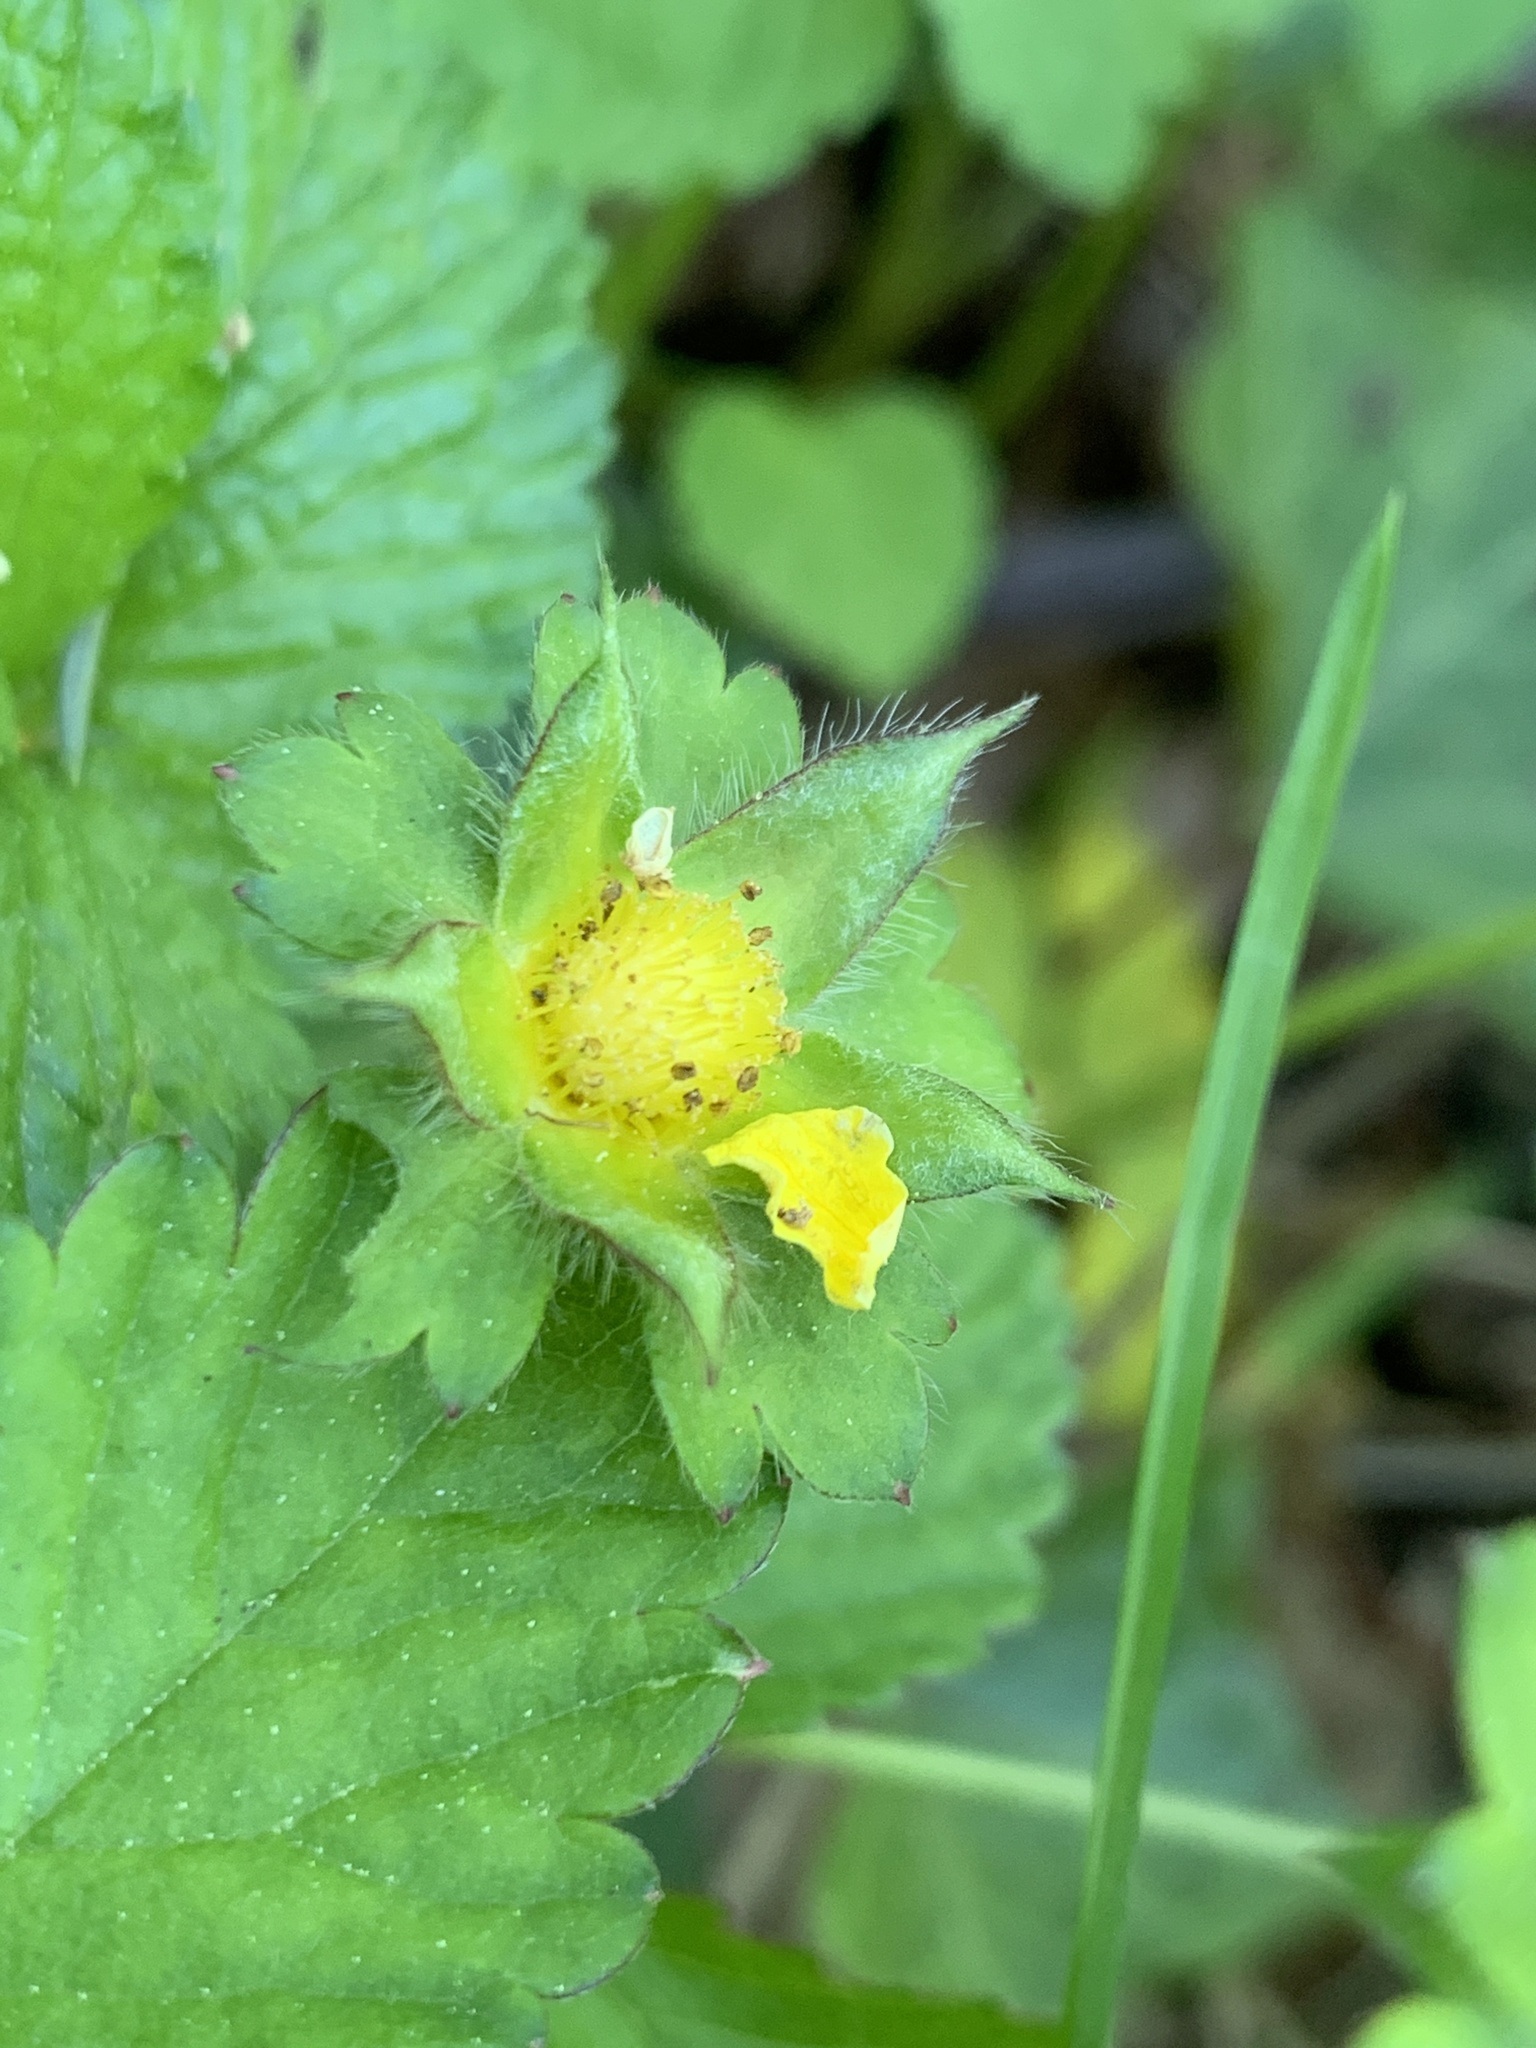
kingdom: Plantae
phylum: Tracheophyta
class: Magnoliopsida
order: Rosales
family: Rosaceae
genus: Potentilla
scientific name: Potentilla indica
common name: Yellow-flowered strawberry
